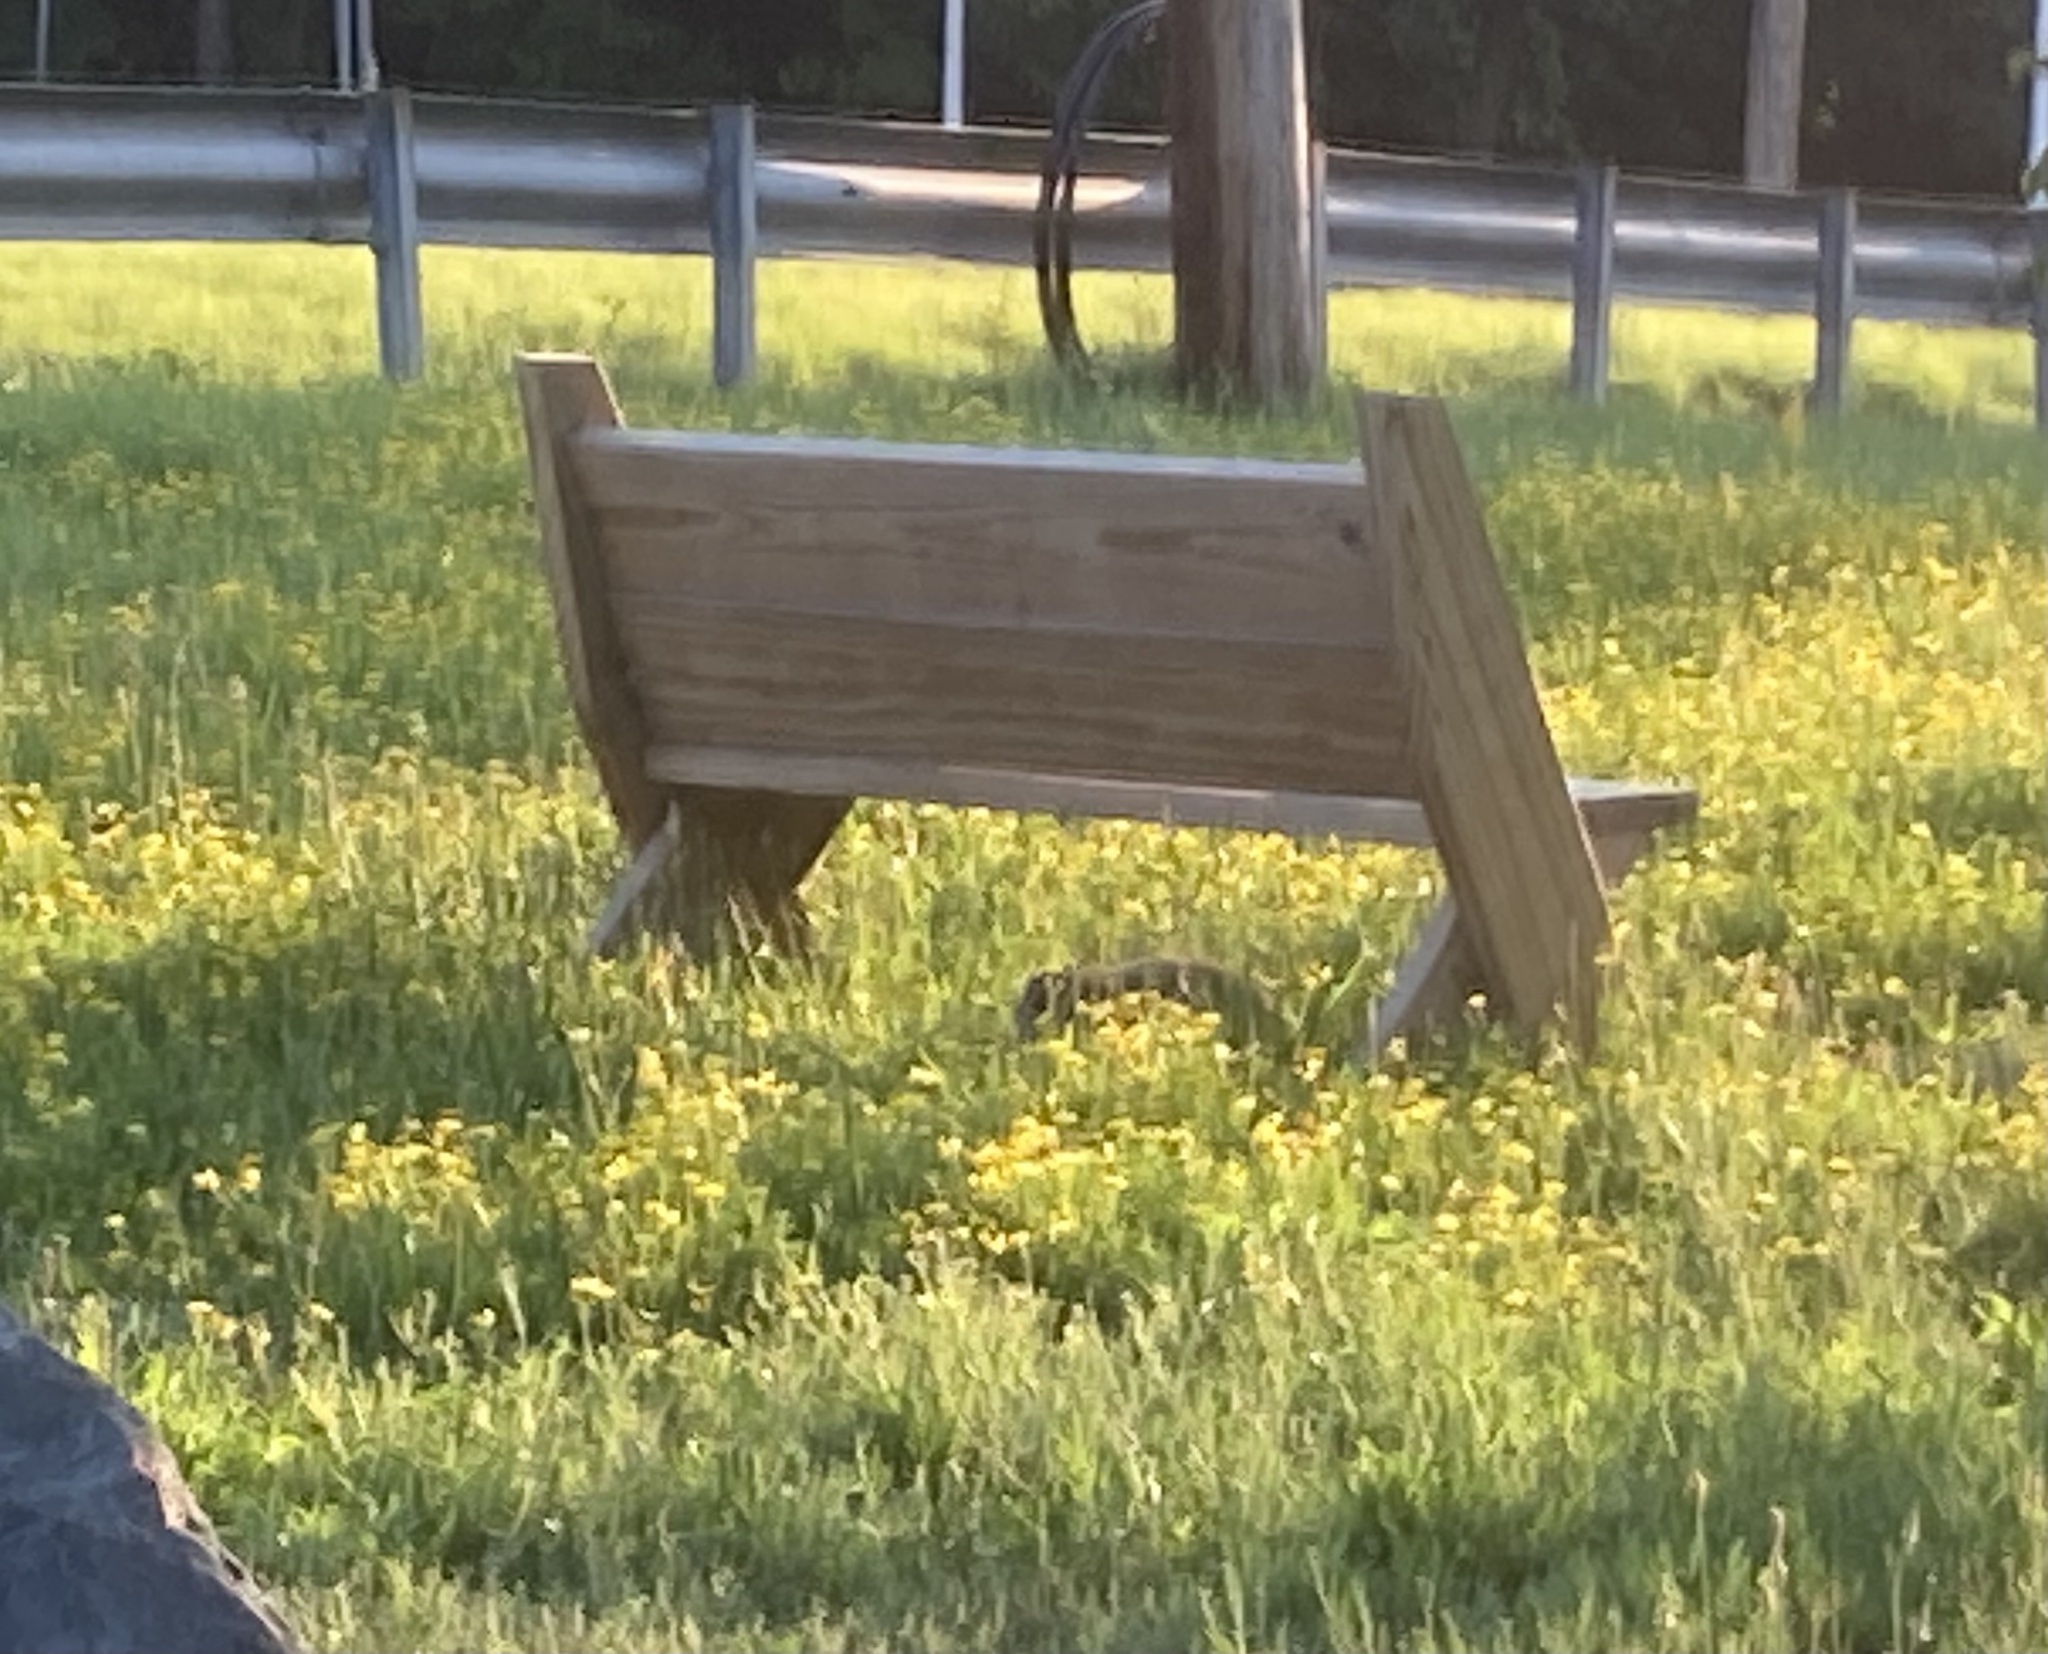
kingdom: Animalia
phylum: Chordata
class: Mammalia
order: Rodentia
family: Sciuridae
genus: Marmota
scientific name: Marmota monax
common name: Groundhog
